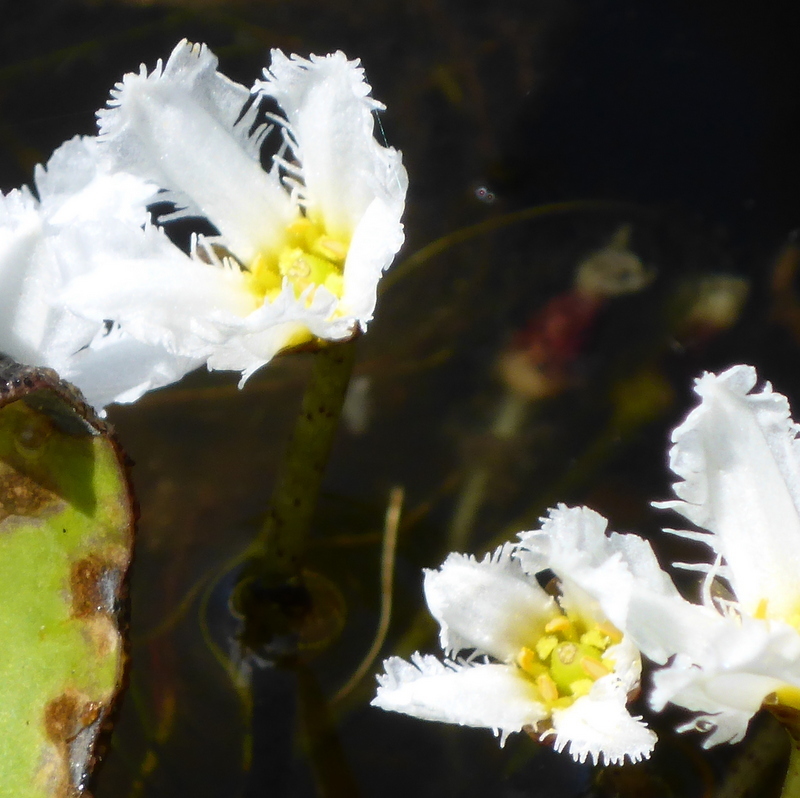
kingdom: Plantae
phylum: Tracheophyta
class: Magnoliopsida
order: Asterales
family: Menyanthaceae
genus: Nymphoides
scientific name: Nymphoides aquatica
